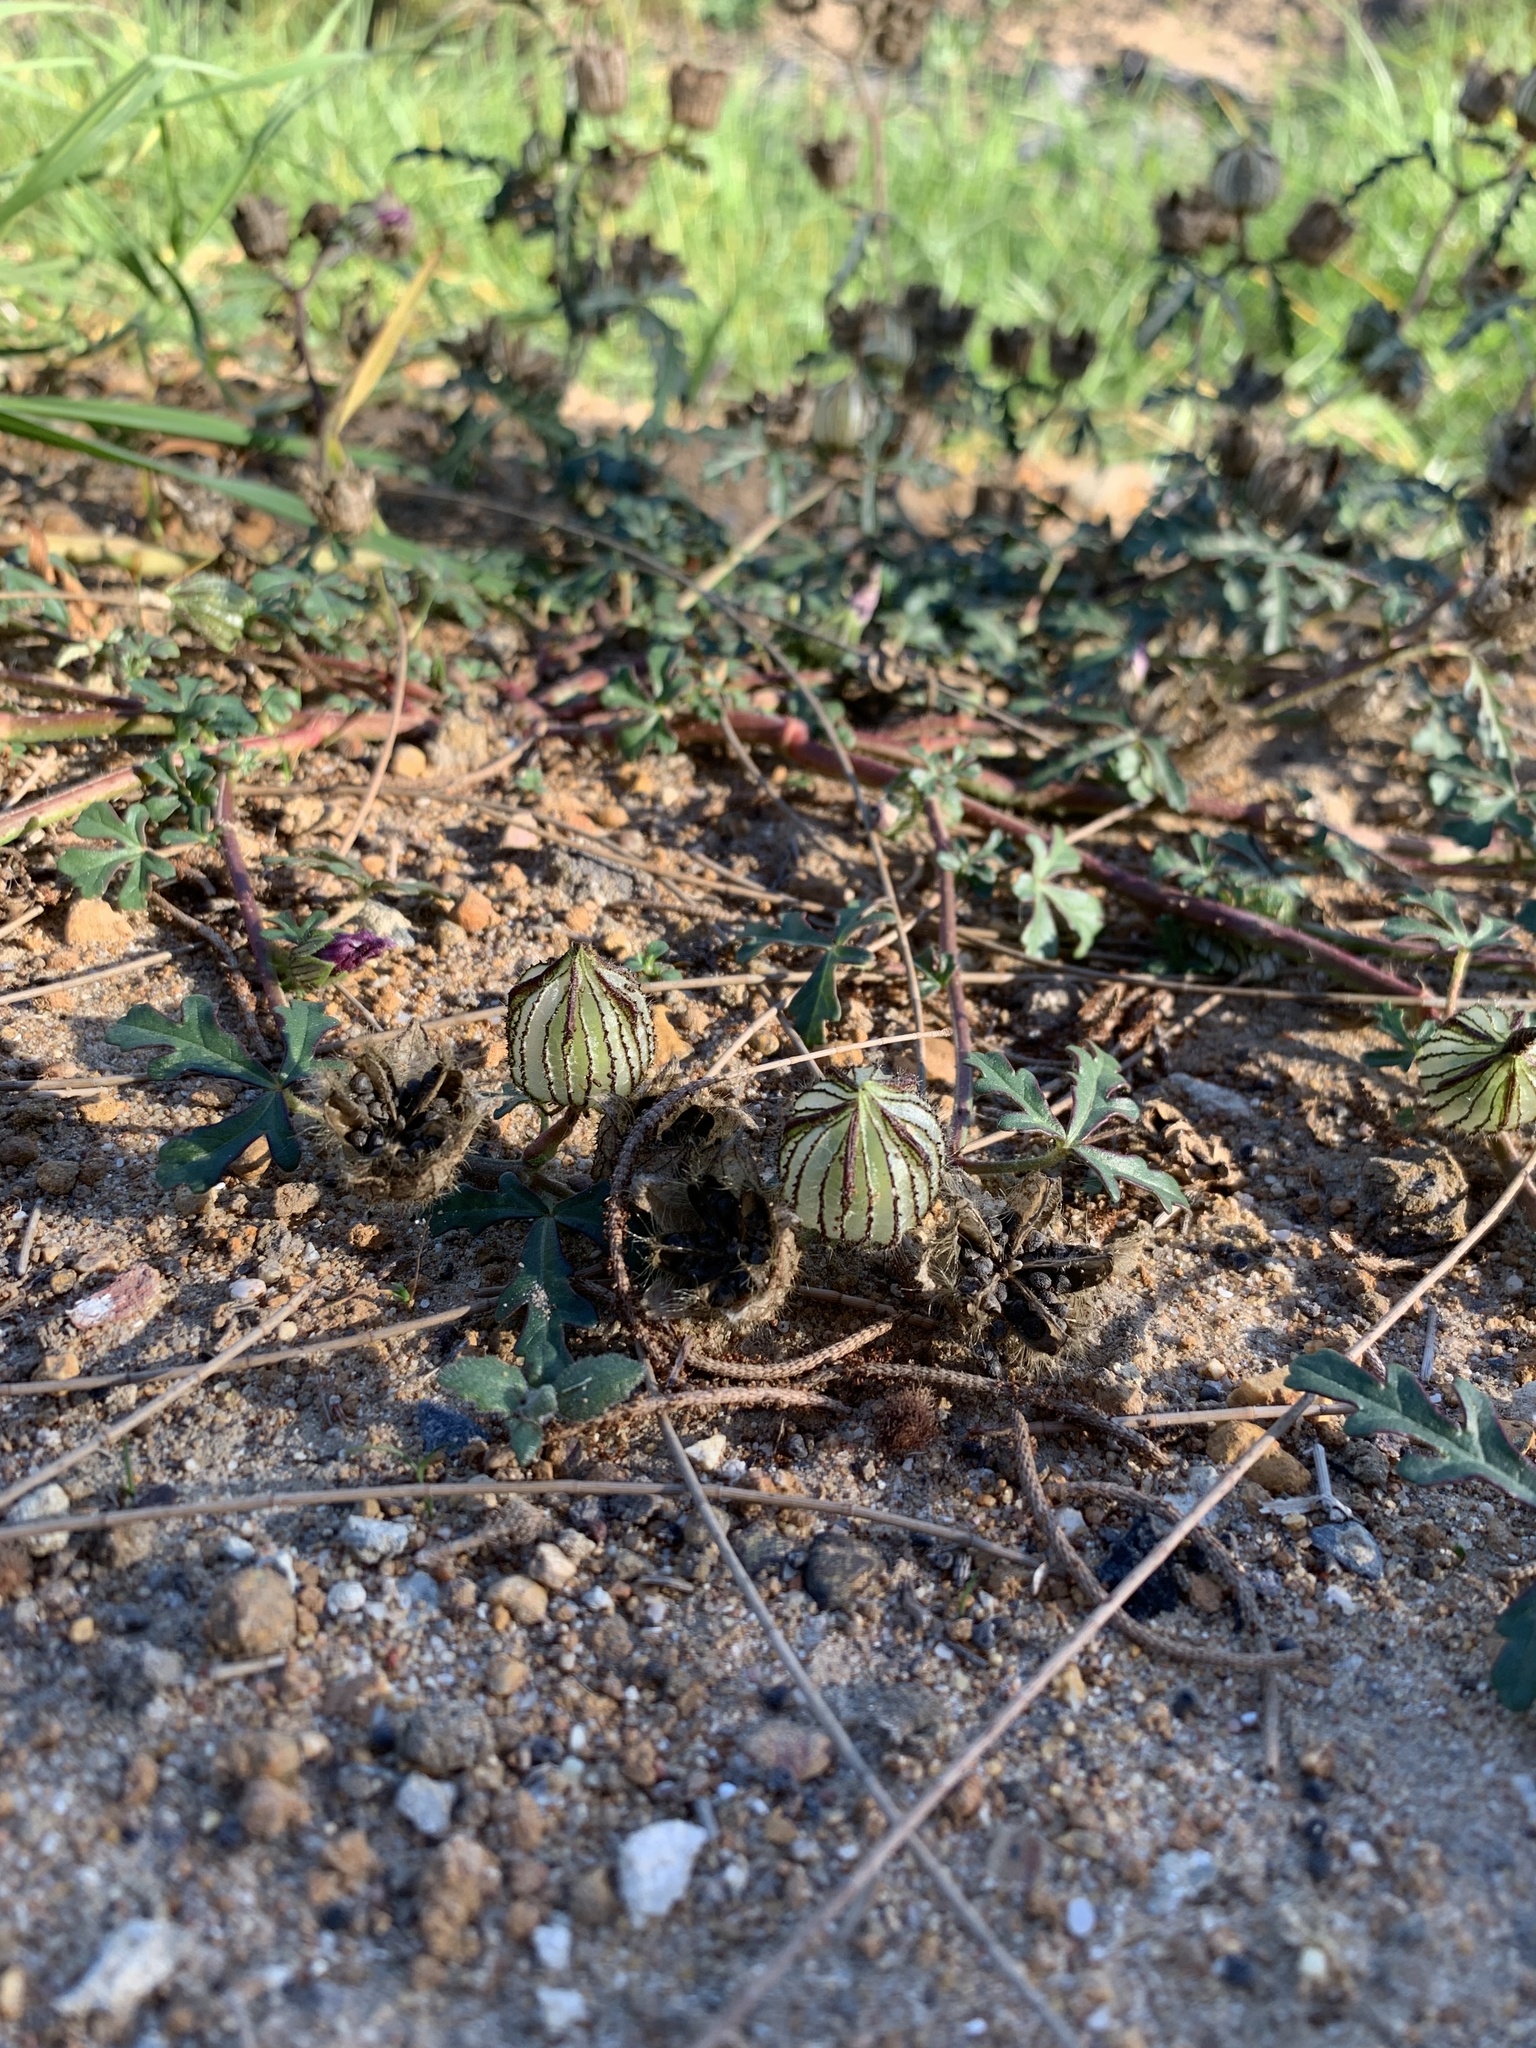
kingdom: Plantae
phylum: Tracheophyta
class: Magnoliopsida
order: Malvales
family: Malvaceae
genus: Hibiscus
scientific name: Hibiscus trionum
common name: Bladder ketmia
